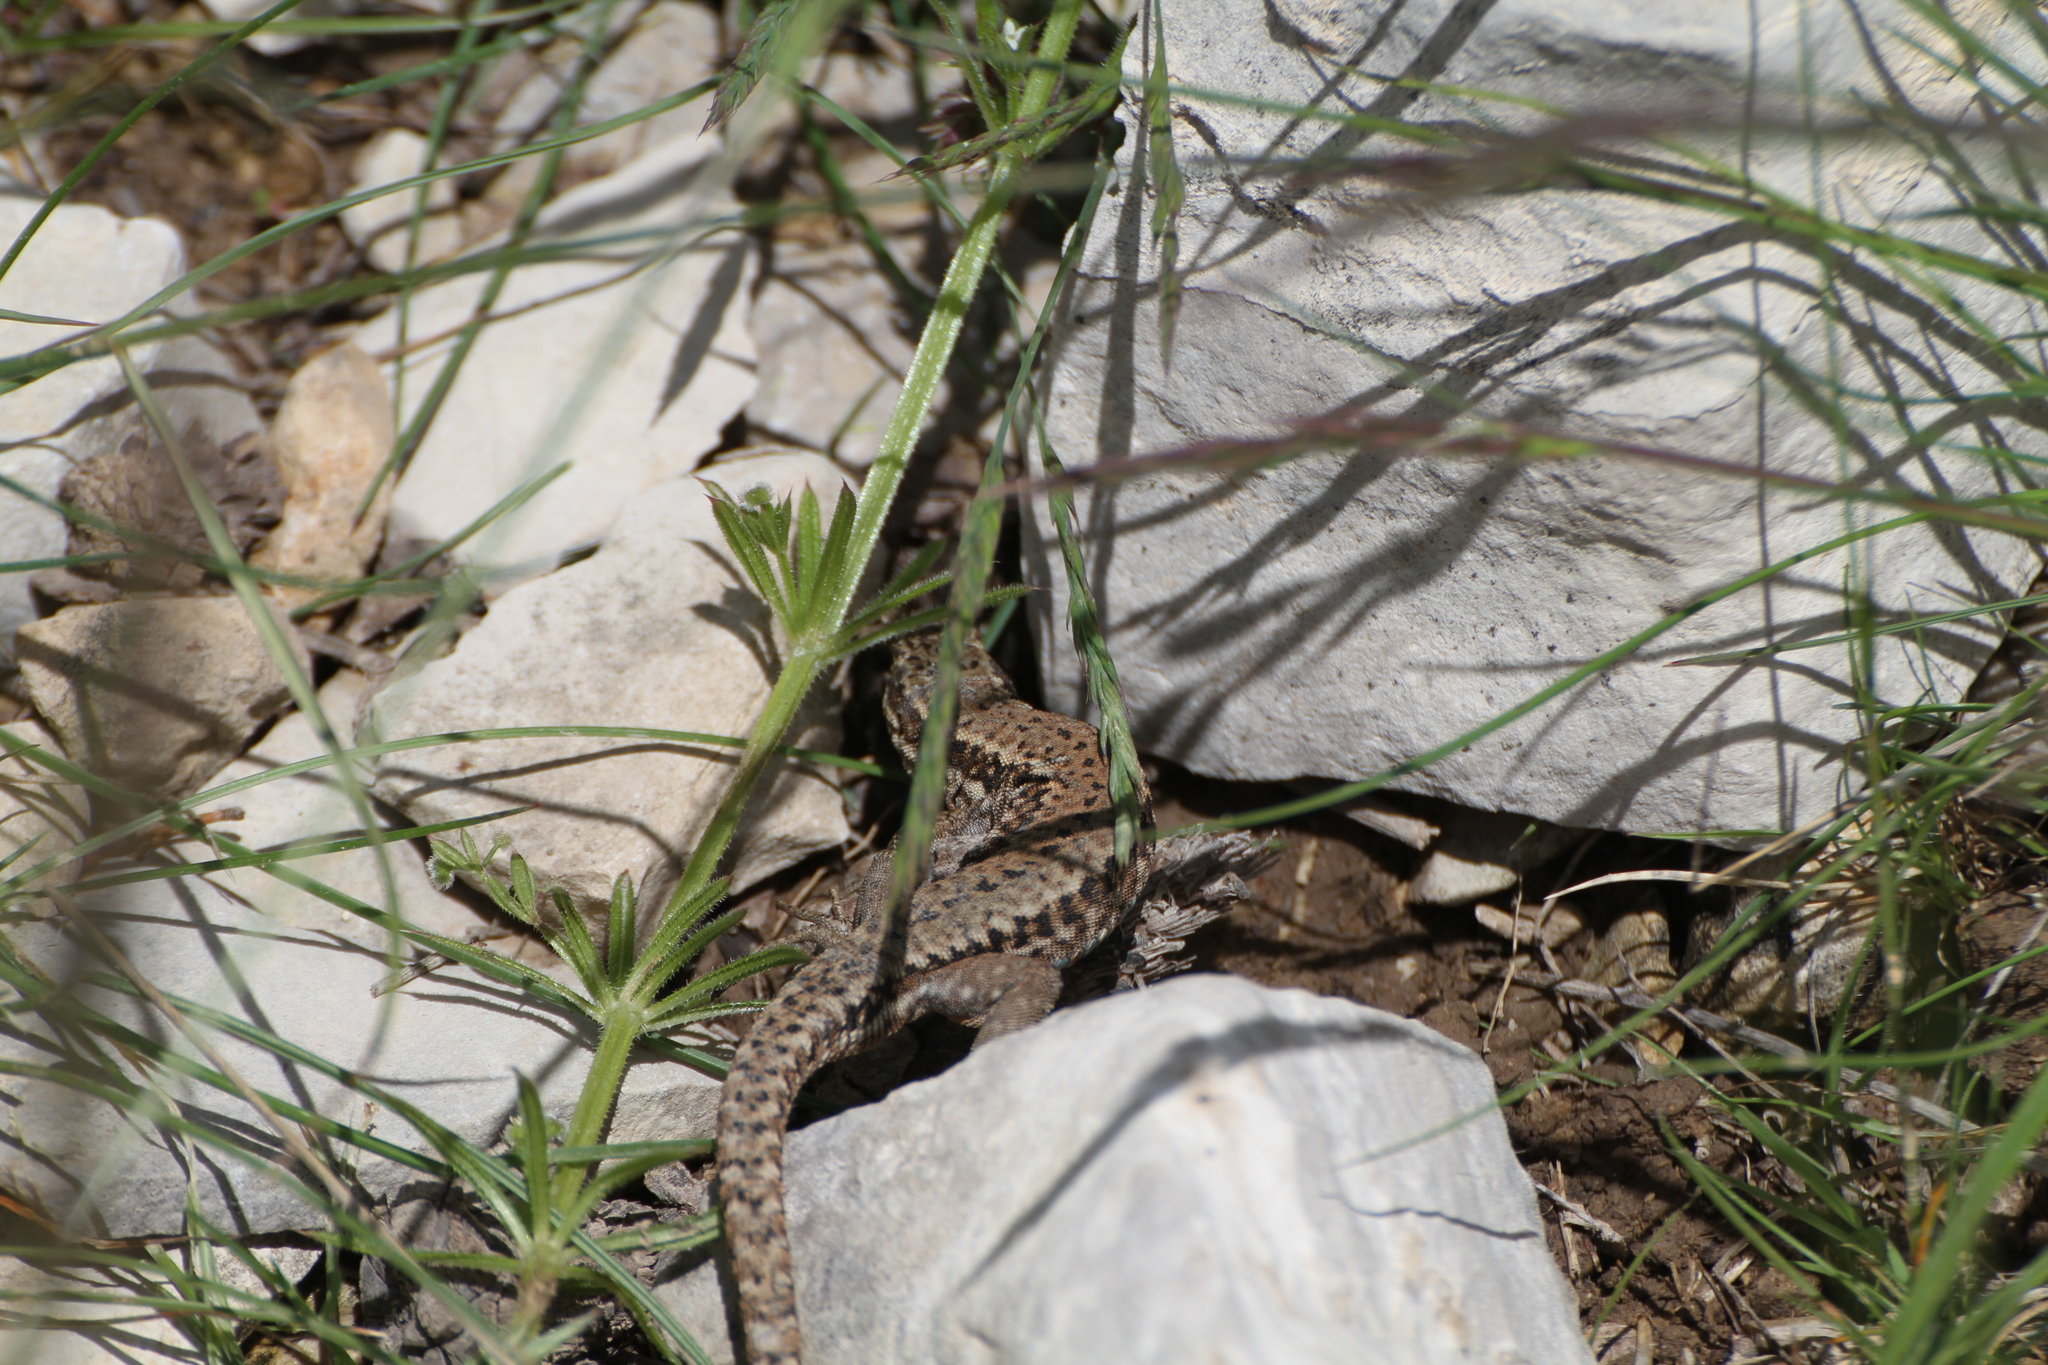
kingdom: Animalia
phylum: Chordata
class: Squamata
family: Lacertidae
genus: Podarcis
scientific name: Podarcis muralis
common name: Common wall lizard
